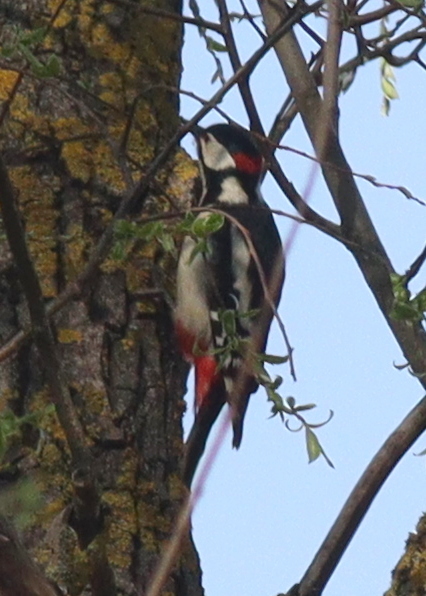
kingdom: Animalia
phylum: Chordata
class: Aves
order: Piciformes
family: Picidae
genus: Dendrocopos
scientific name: Dendrocopos major
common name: Great spotted woodpecker
